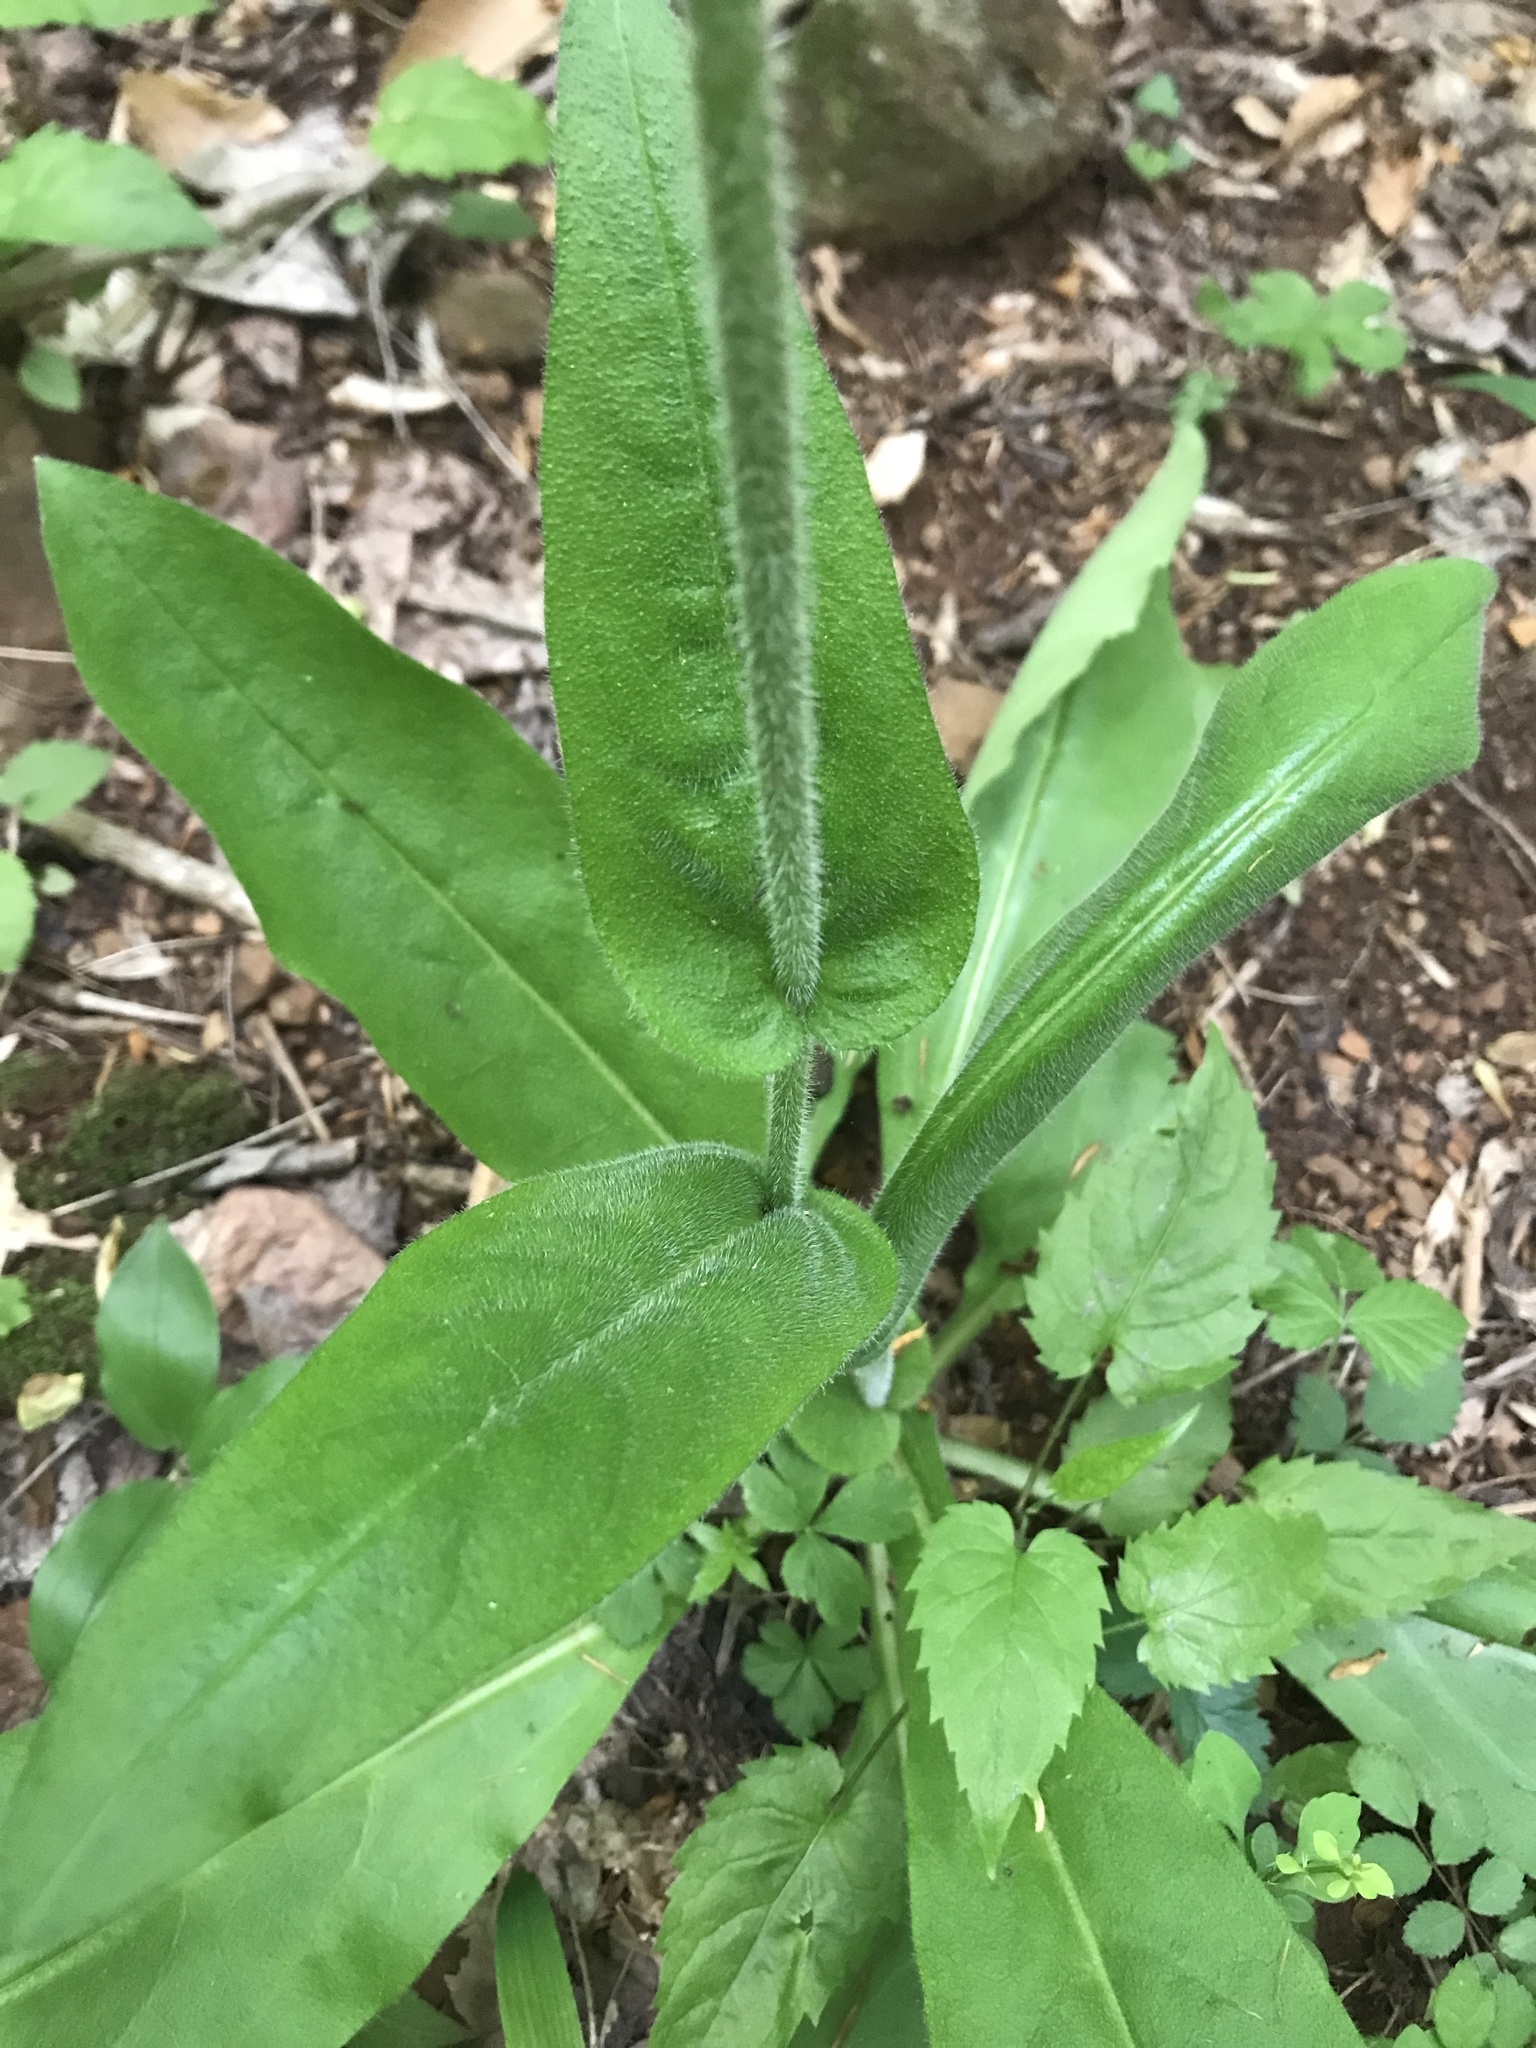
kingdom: Plantae
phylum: Tracheophyta
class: Magnoliopsida
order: Boraginales
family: Boraginaceae
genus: Andersonglossum
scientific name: Andersonglossum virginianum
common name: Wild comfrey
